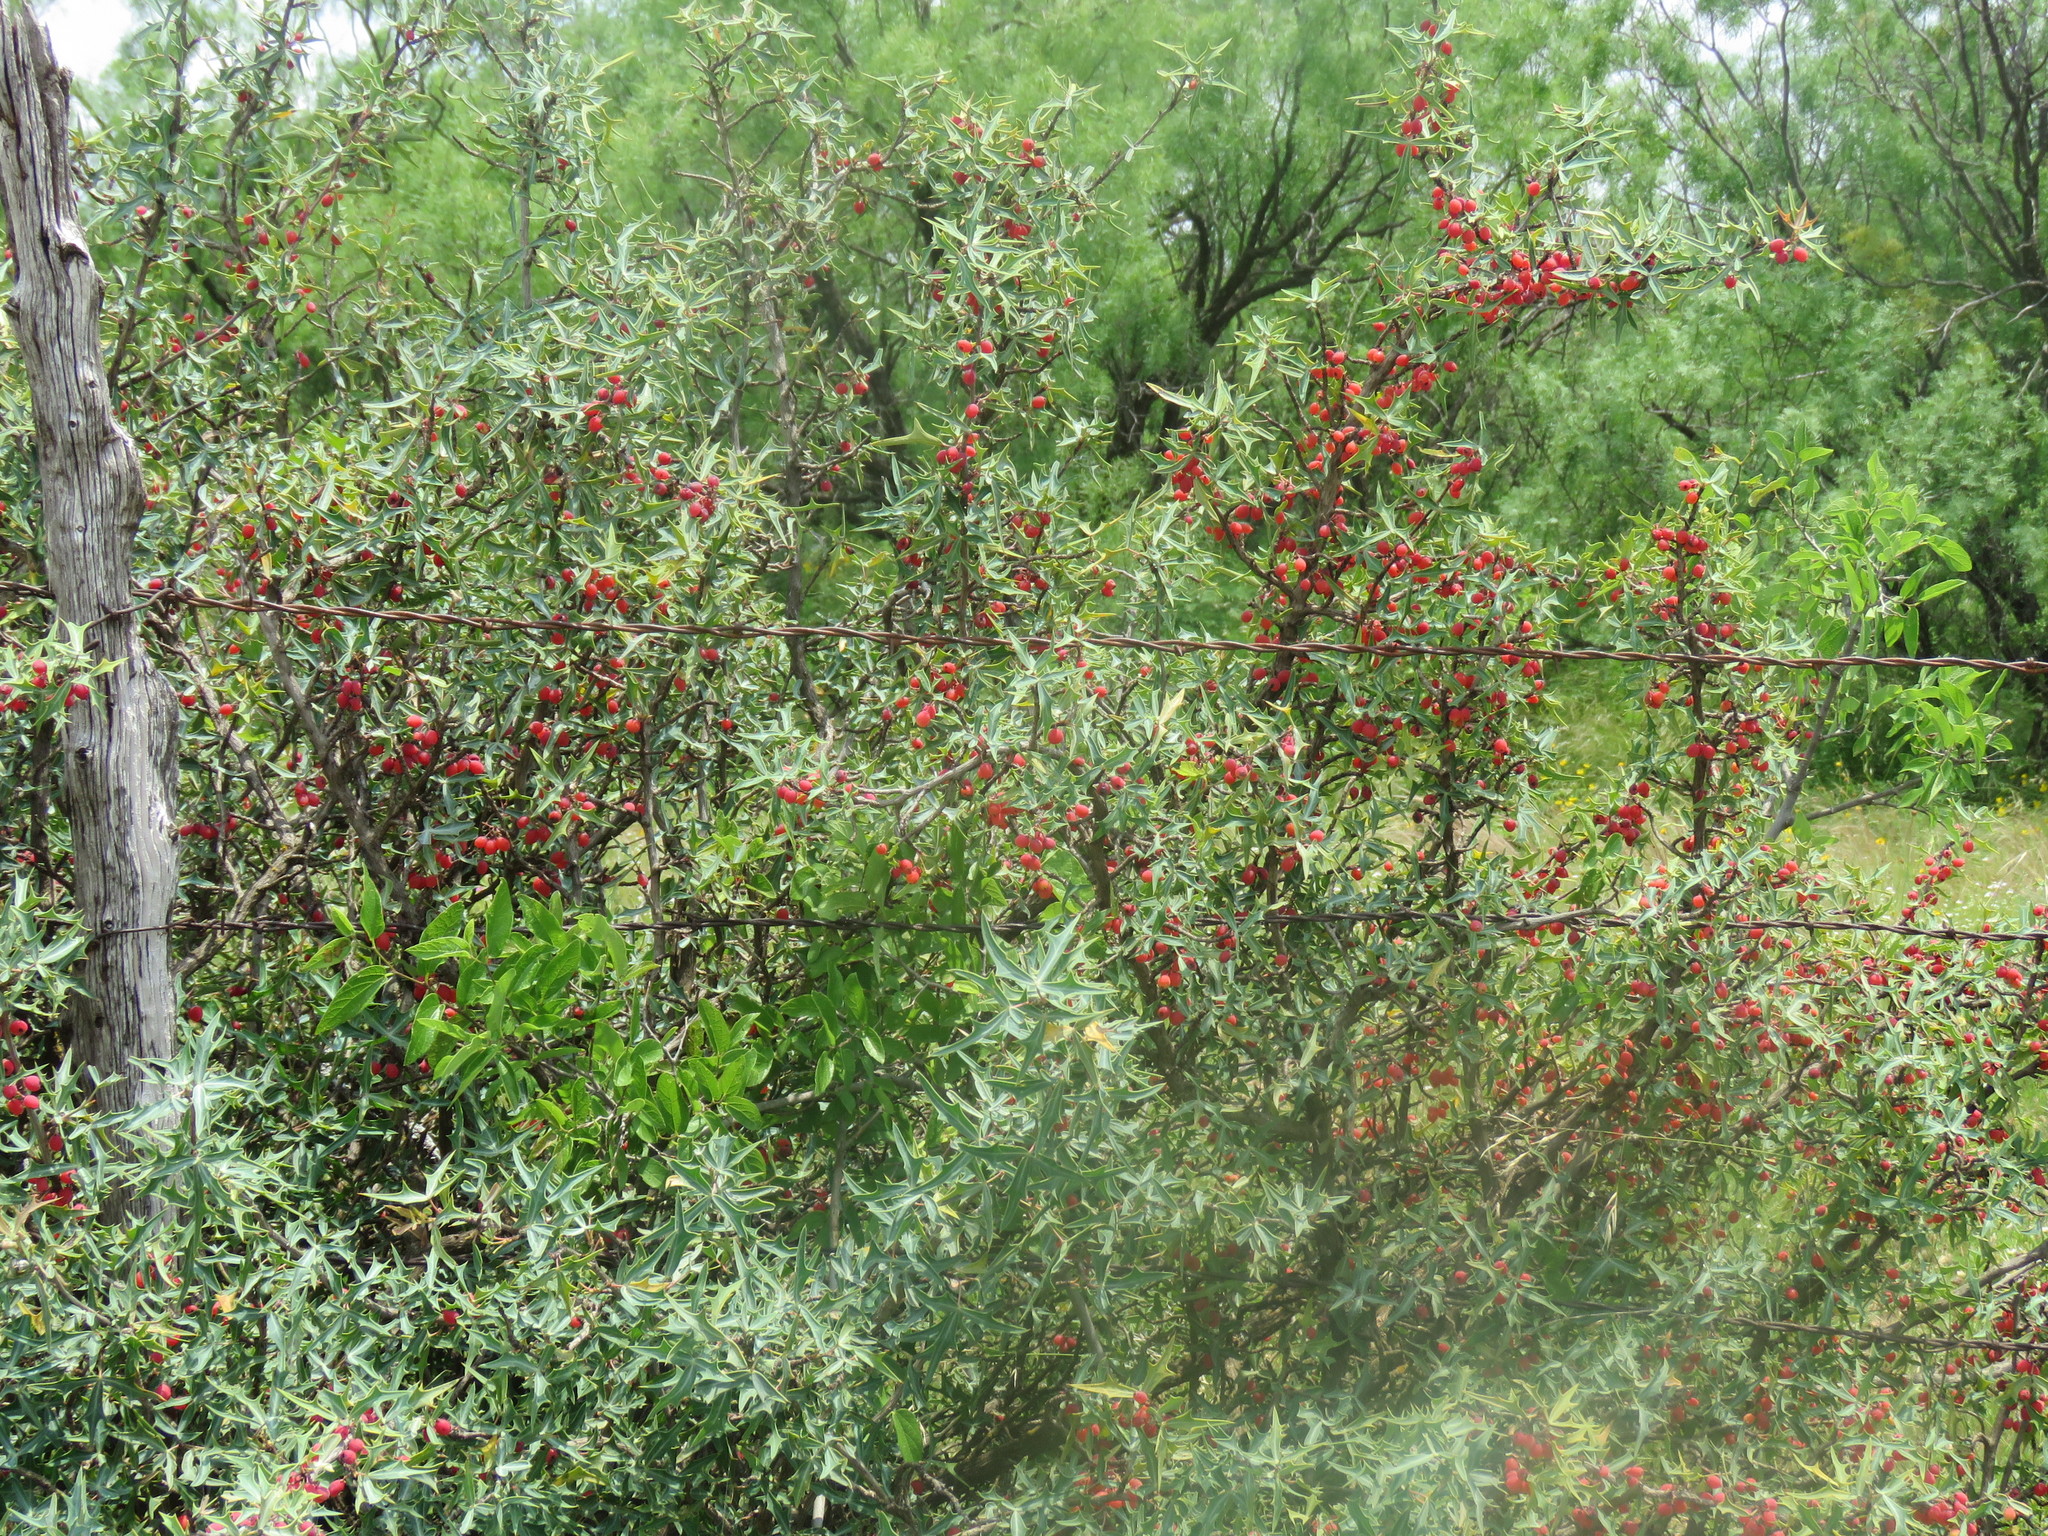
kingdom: Plantae
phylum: Tracheophyta
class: Magnoliopsida
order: Ranunculales
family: Berberidaceae
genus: Alloberberis
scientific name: Alloberberis trifoliolata
